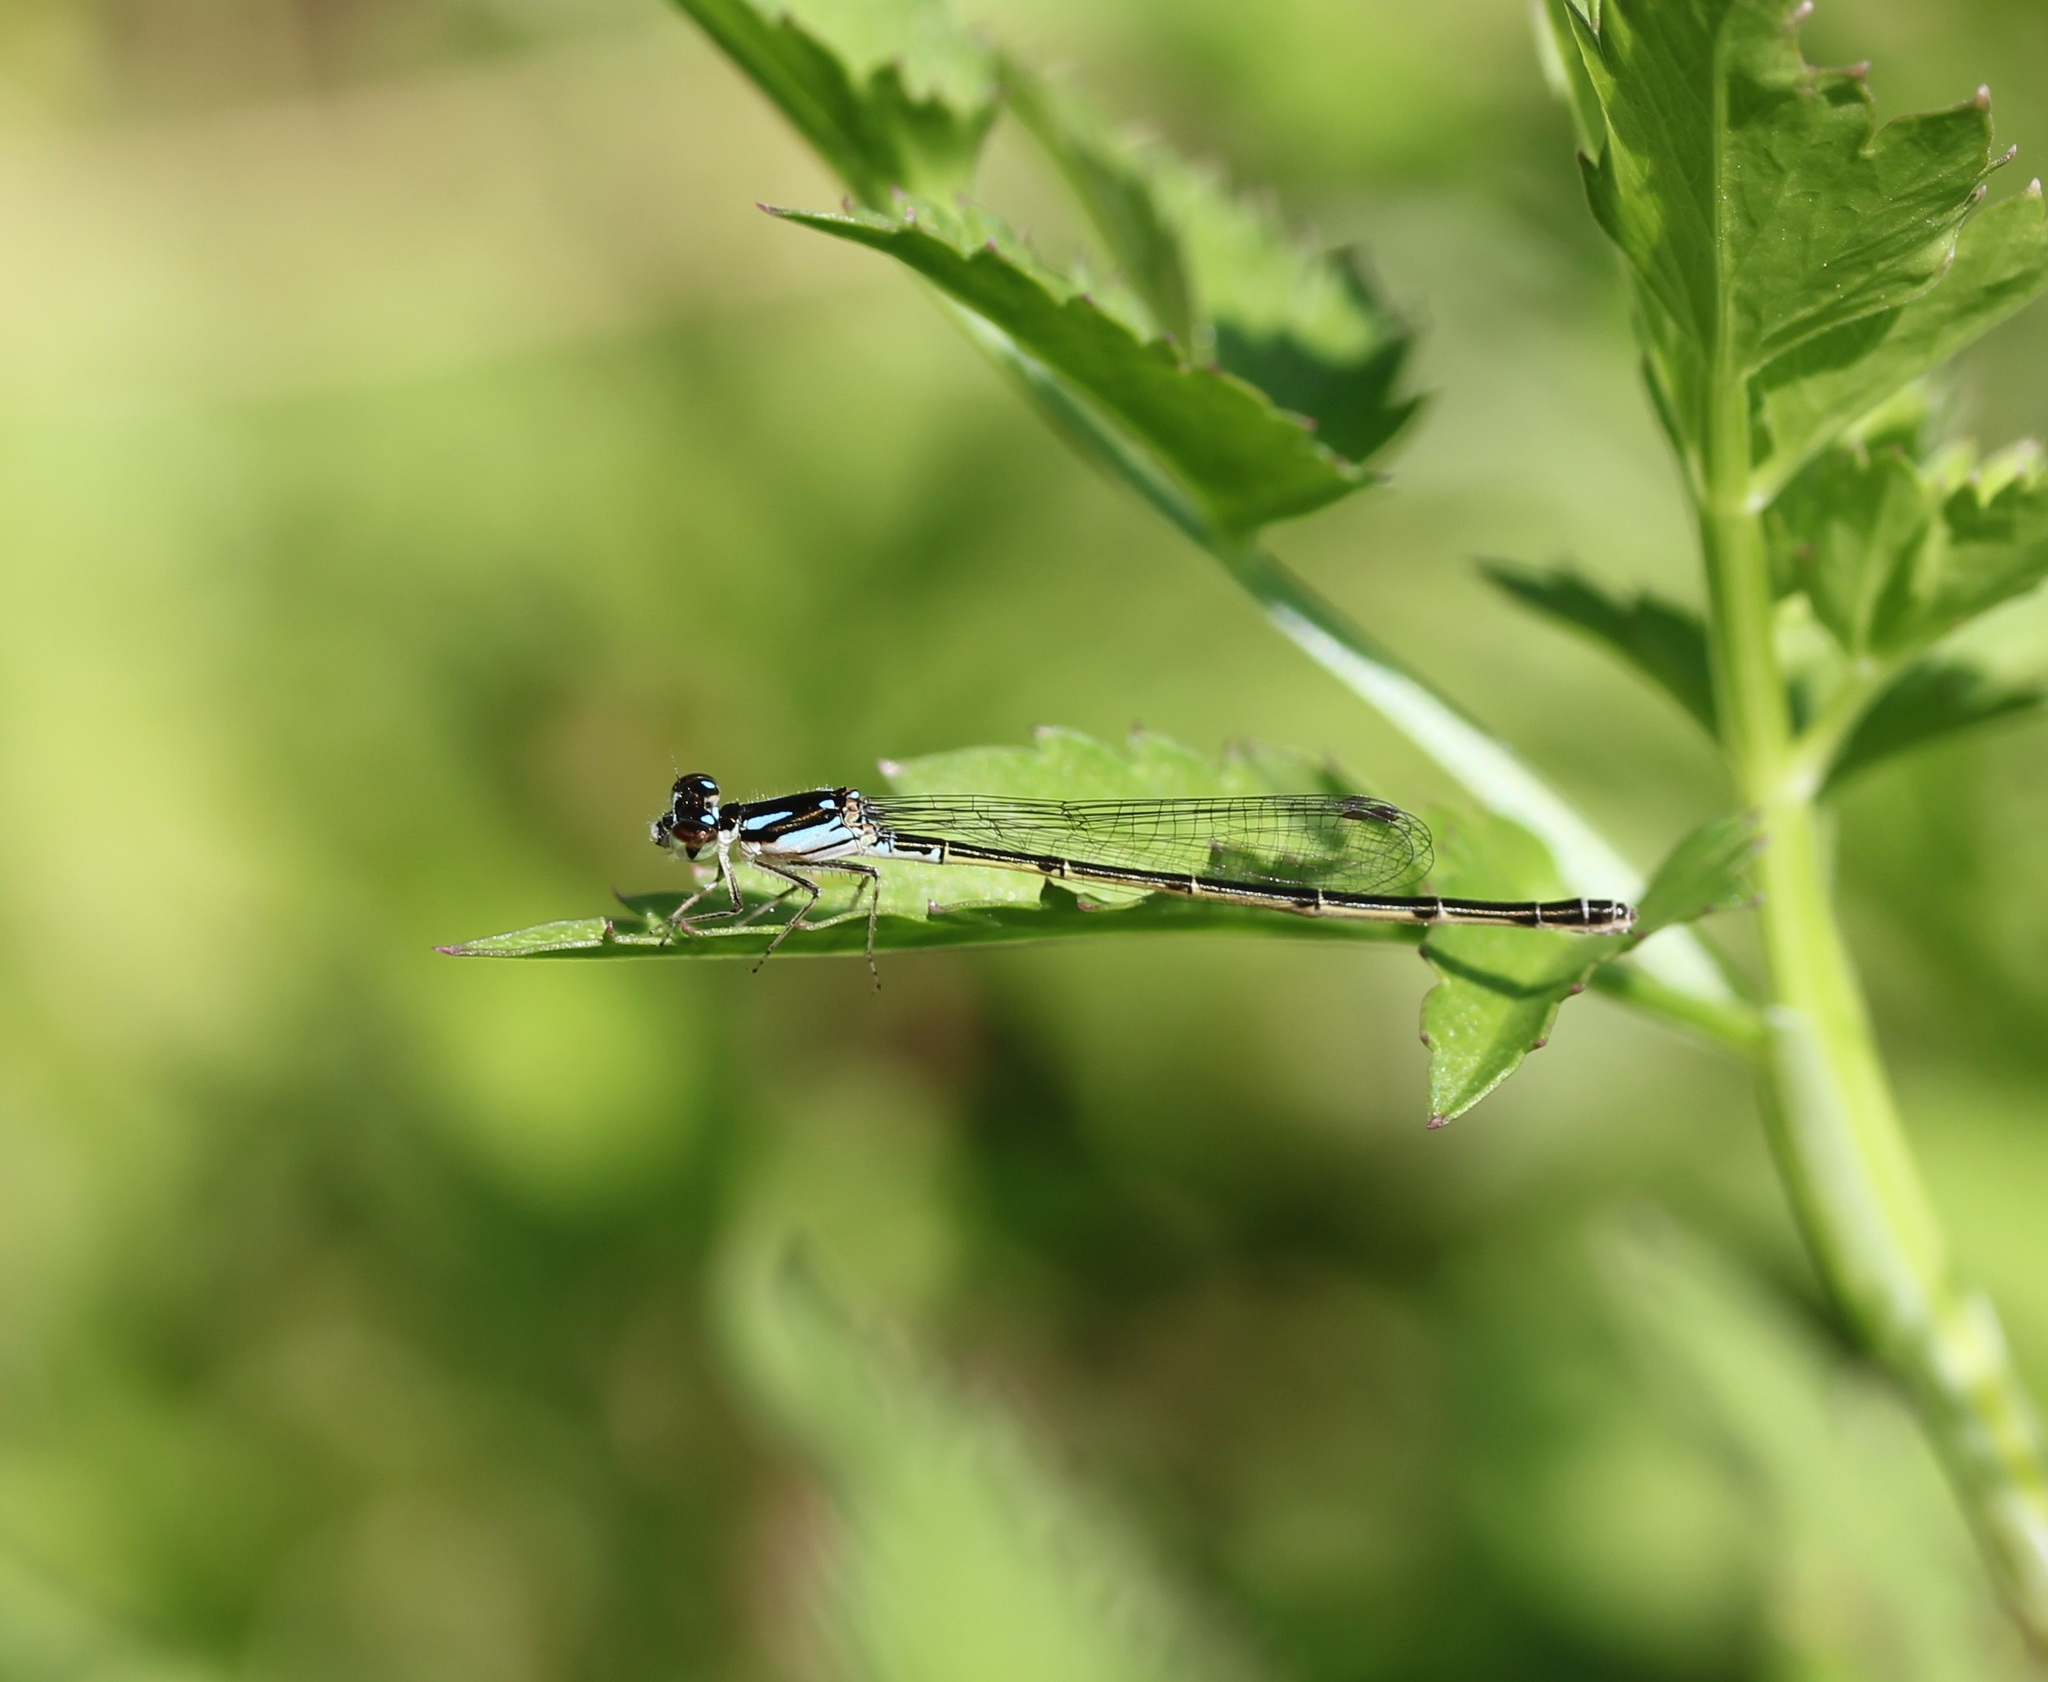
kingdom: Animalia
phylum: Arthropoda
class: Insecta
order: Odonata
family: Coenagrionidae
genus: Ischnura
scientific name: Ischnura posita
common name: Fragile forktail
